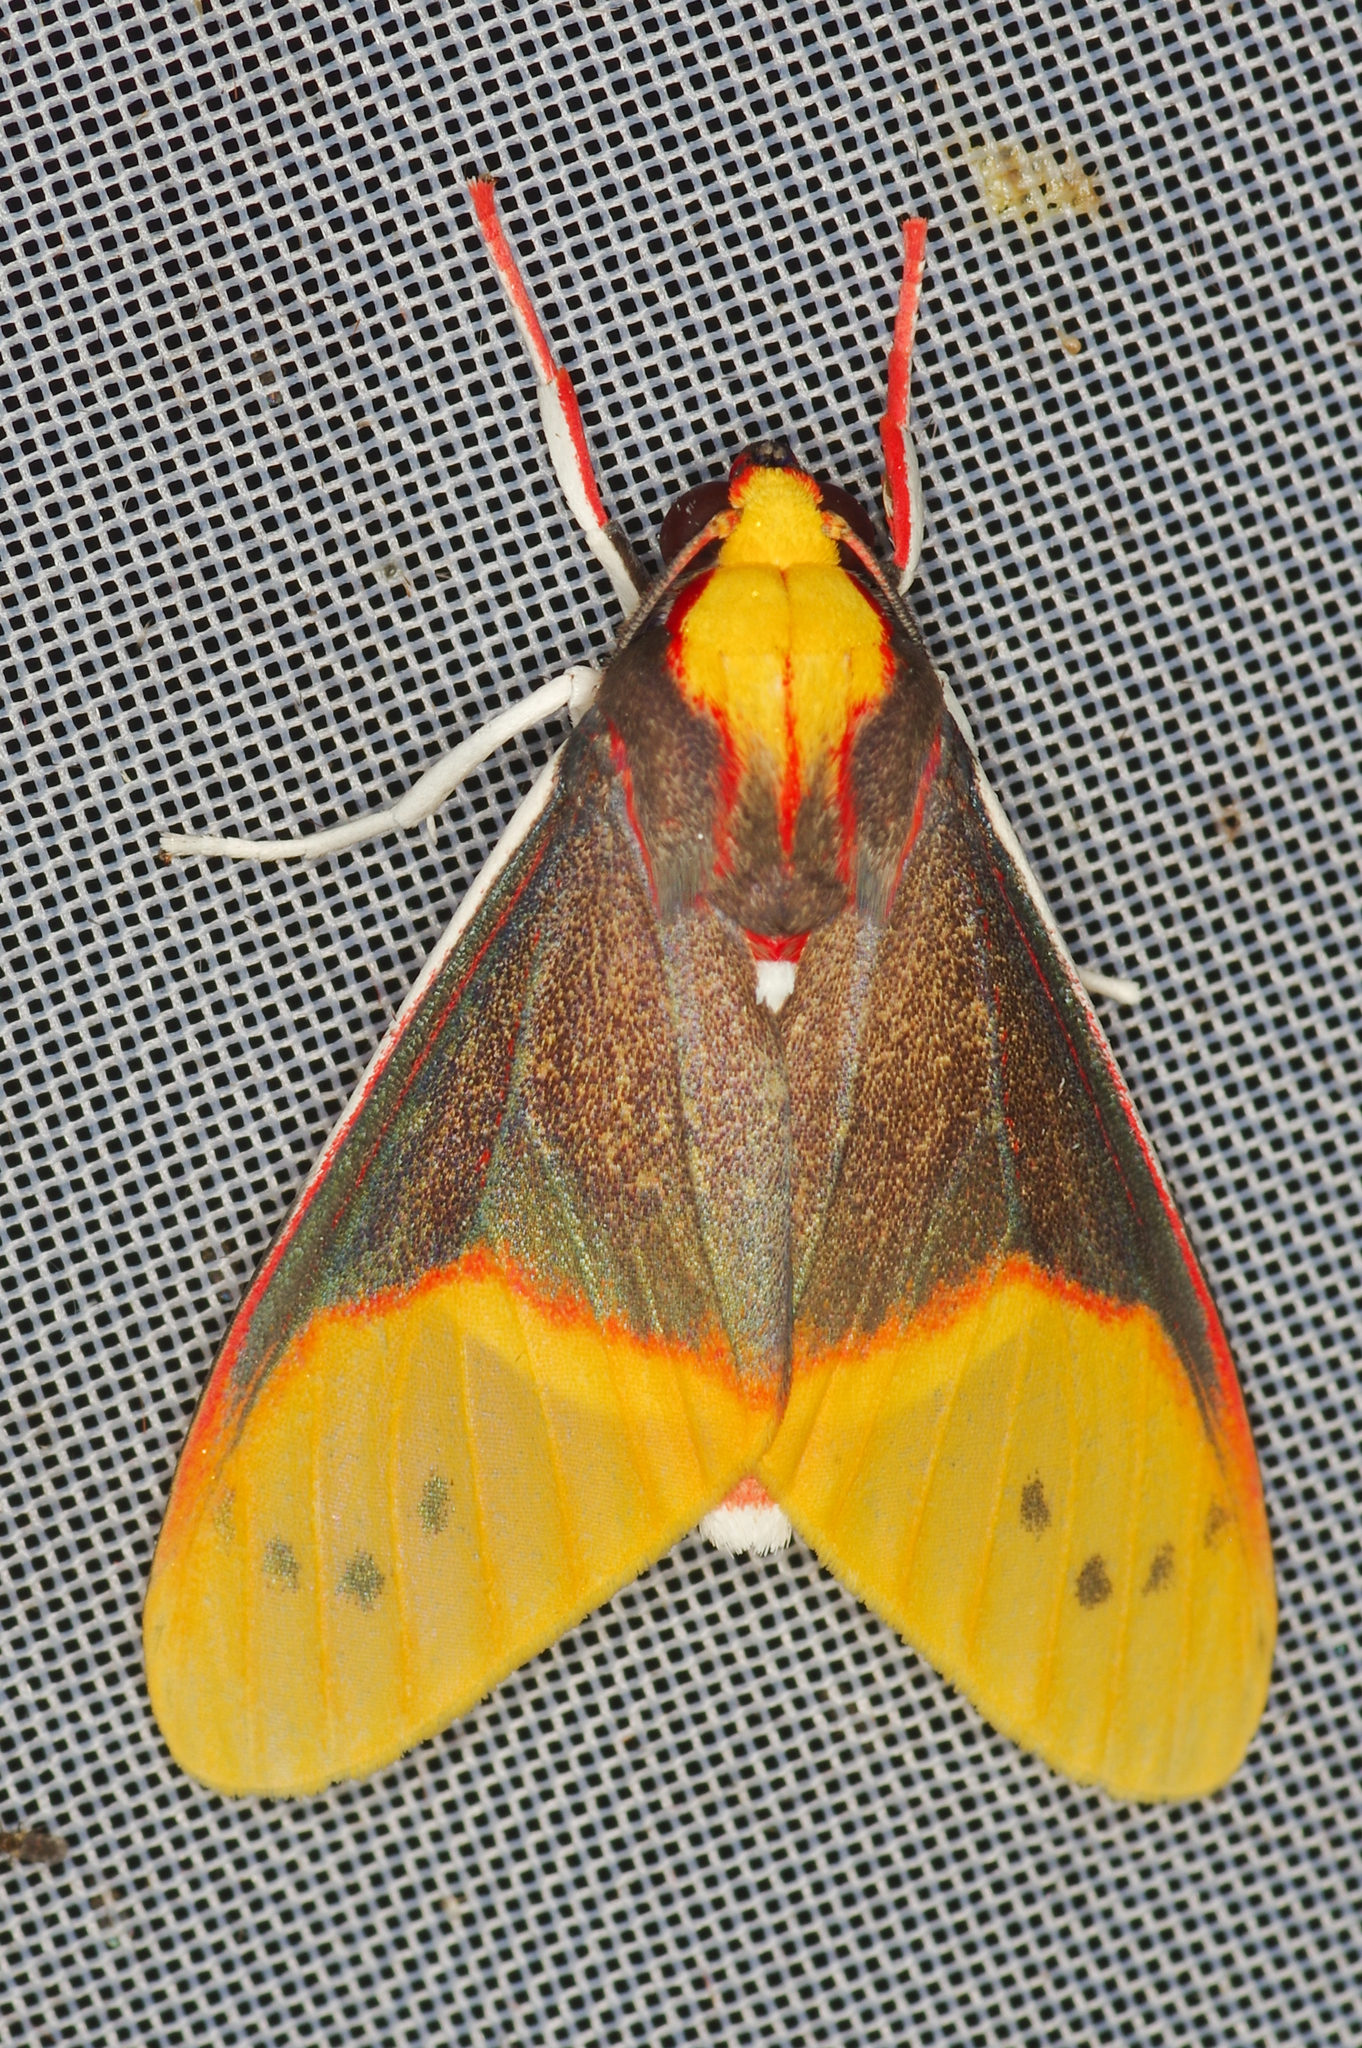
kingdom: Animalia
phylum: Arthropoda
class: Insecta
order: Lepidoptera
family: Erebidae
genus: Evius
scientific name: Evius albicoxae
